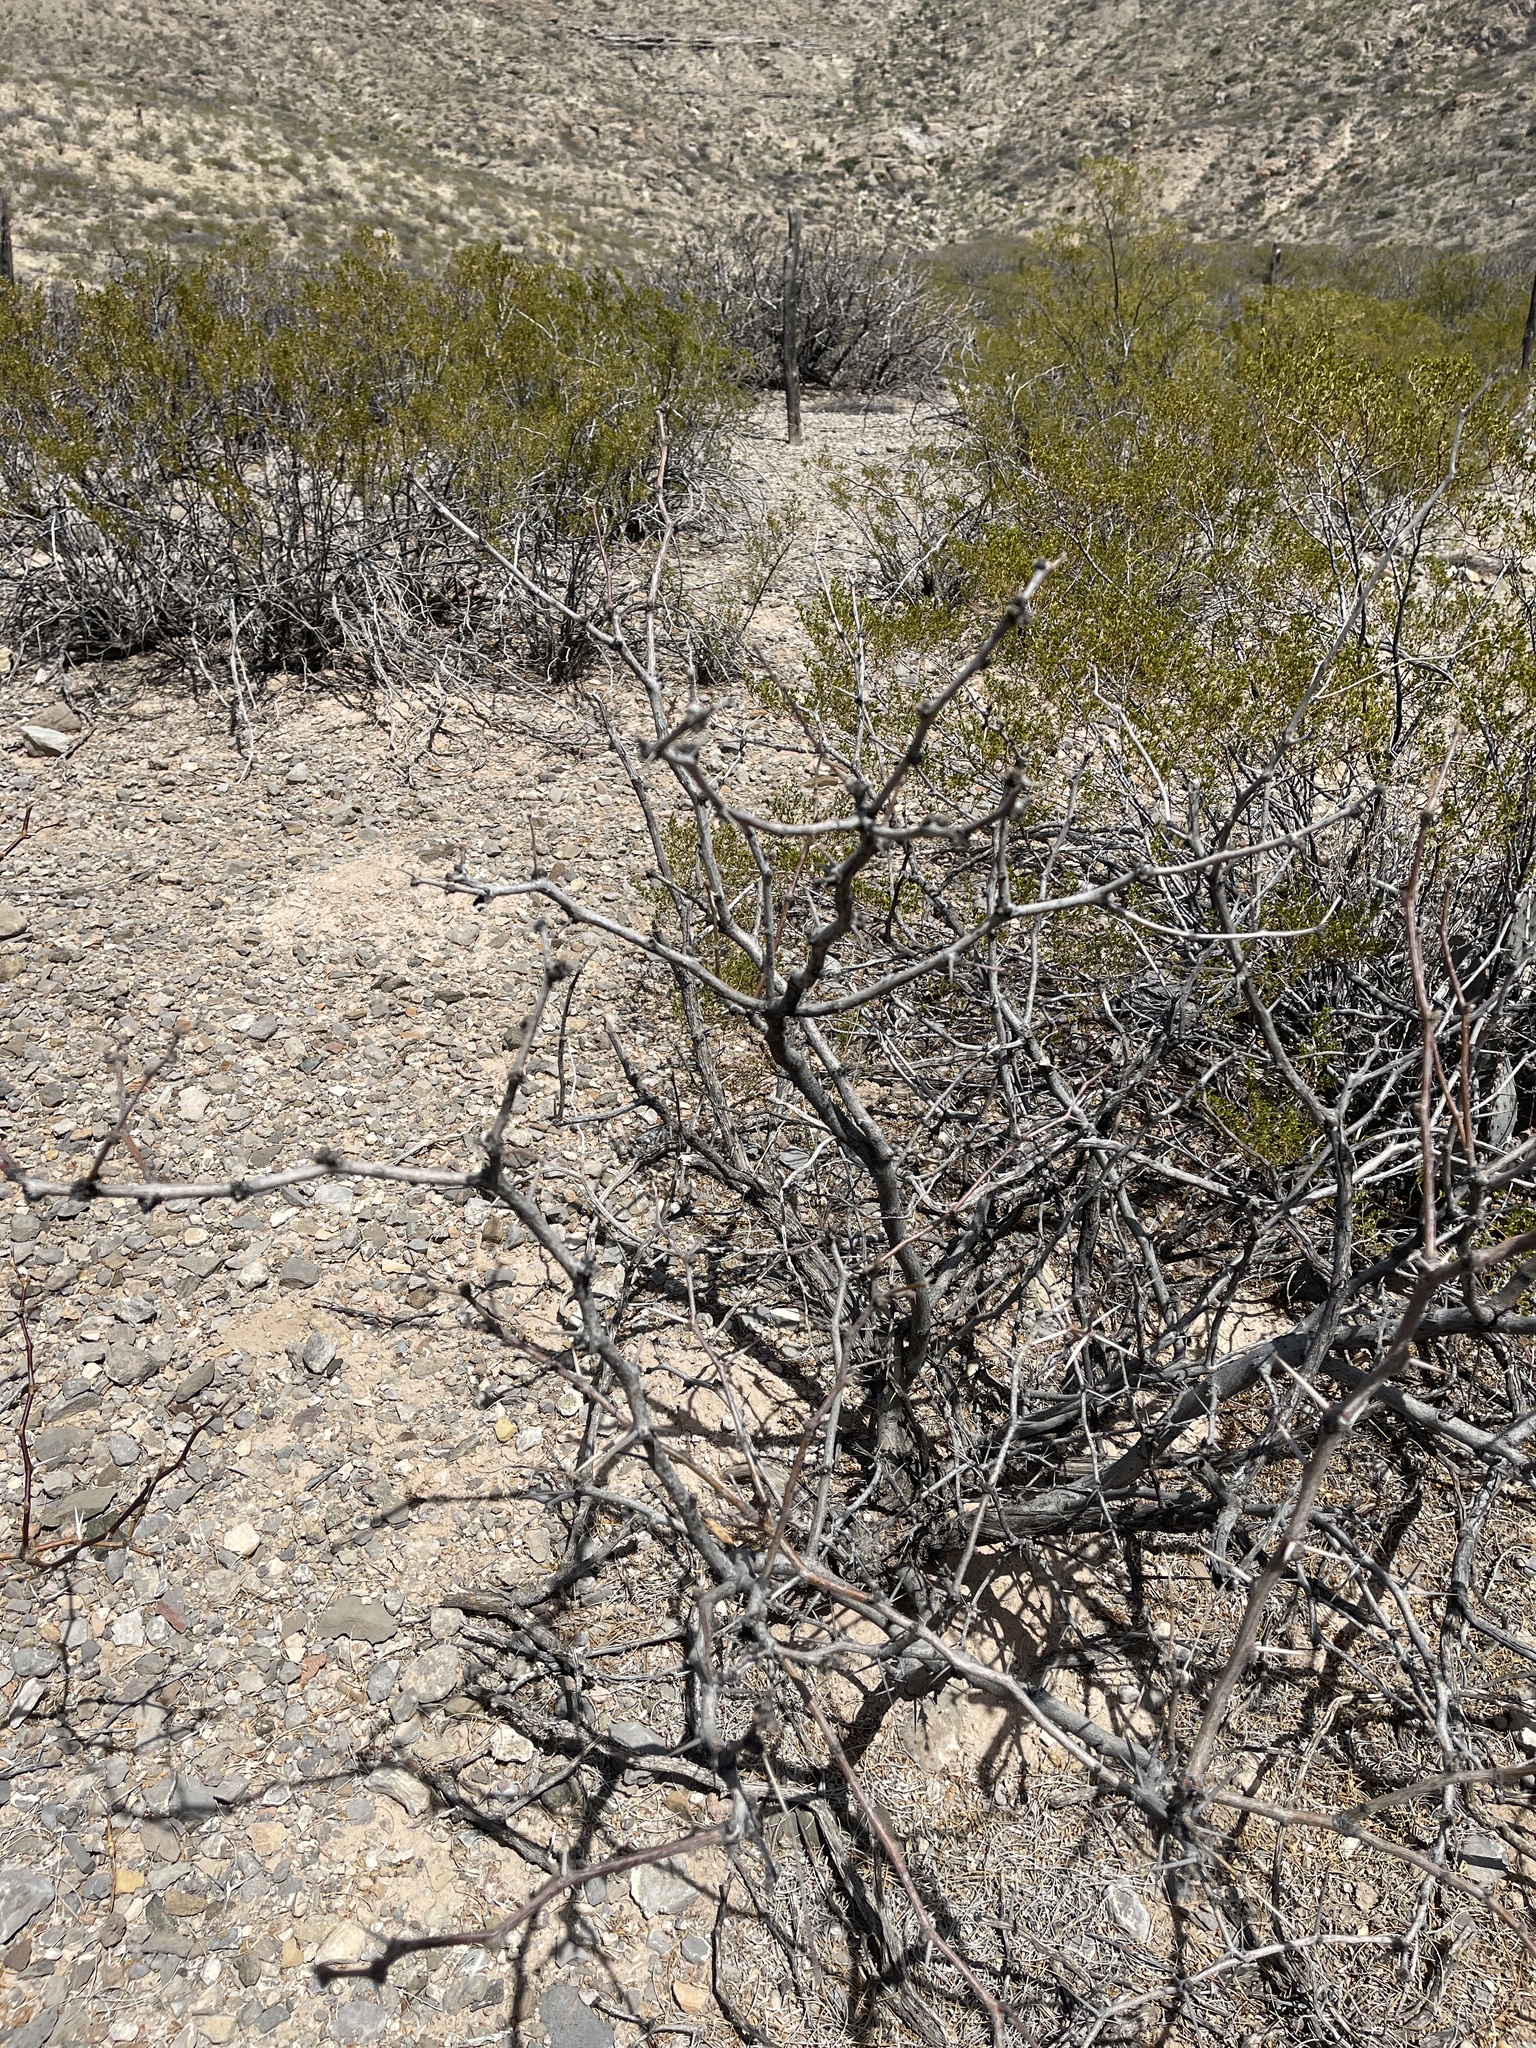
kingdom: Plantae
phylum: Tracheophyta
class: Magnoliopsida
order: Fabales
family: Fabaceae
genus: Prosopis
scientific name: Prosopis glandulosa
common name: Honey mesquite
